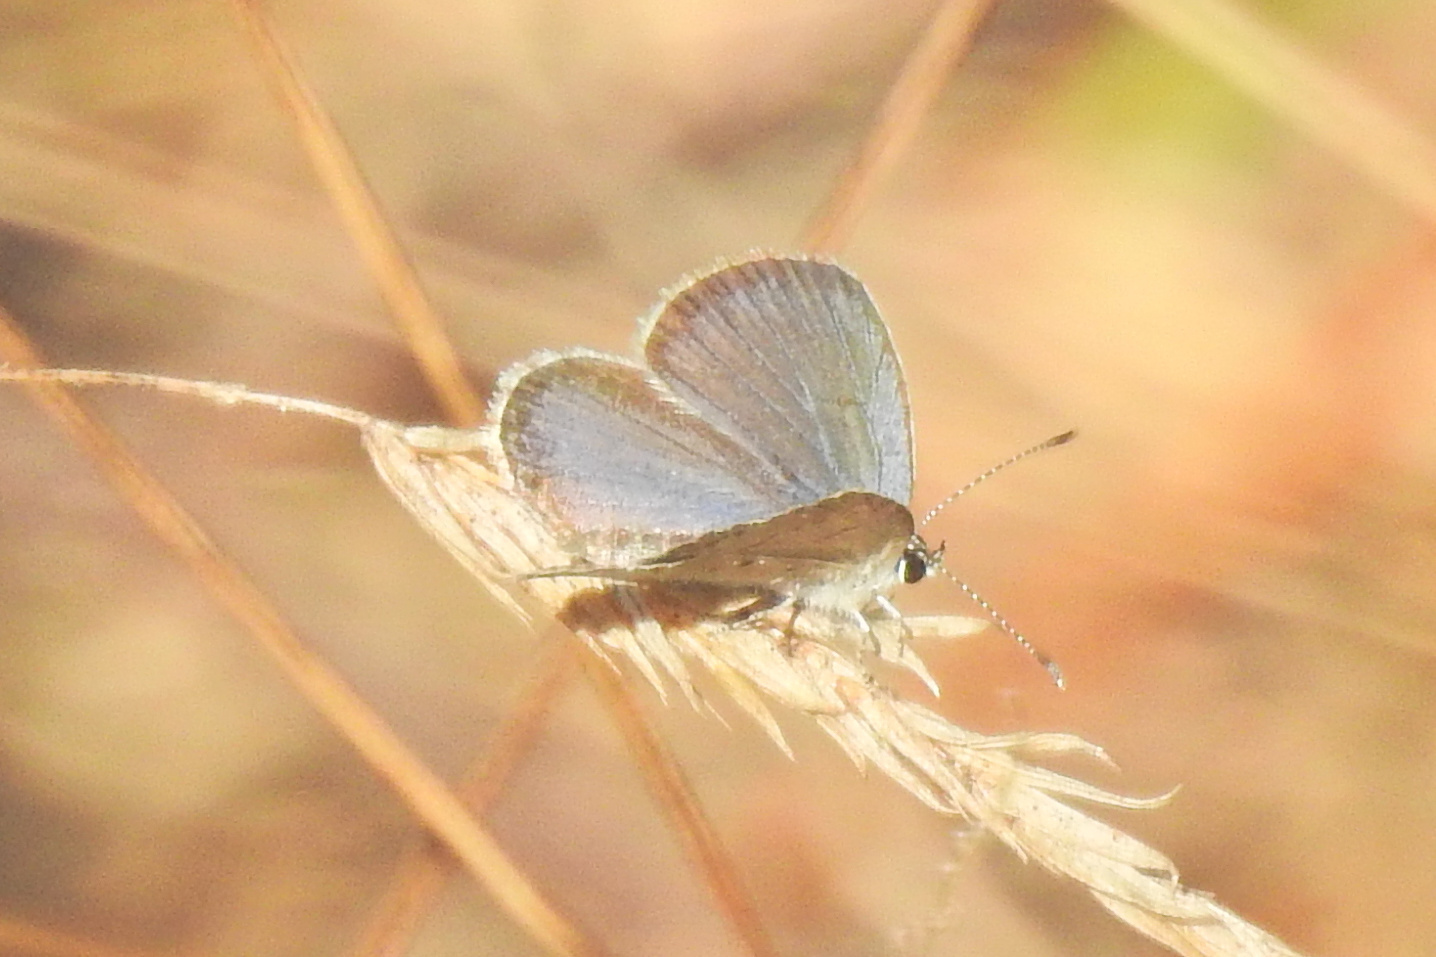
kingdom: Animalia
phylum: Arthropoda
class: Insecta
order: Lepidoptera
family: Lycaenidae
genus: Elkalyce
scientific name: Elkalyce comyntas
